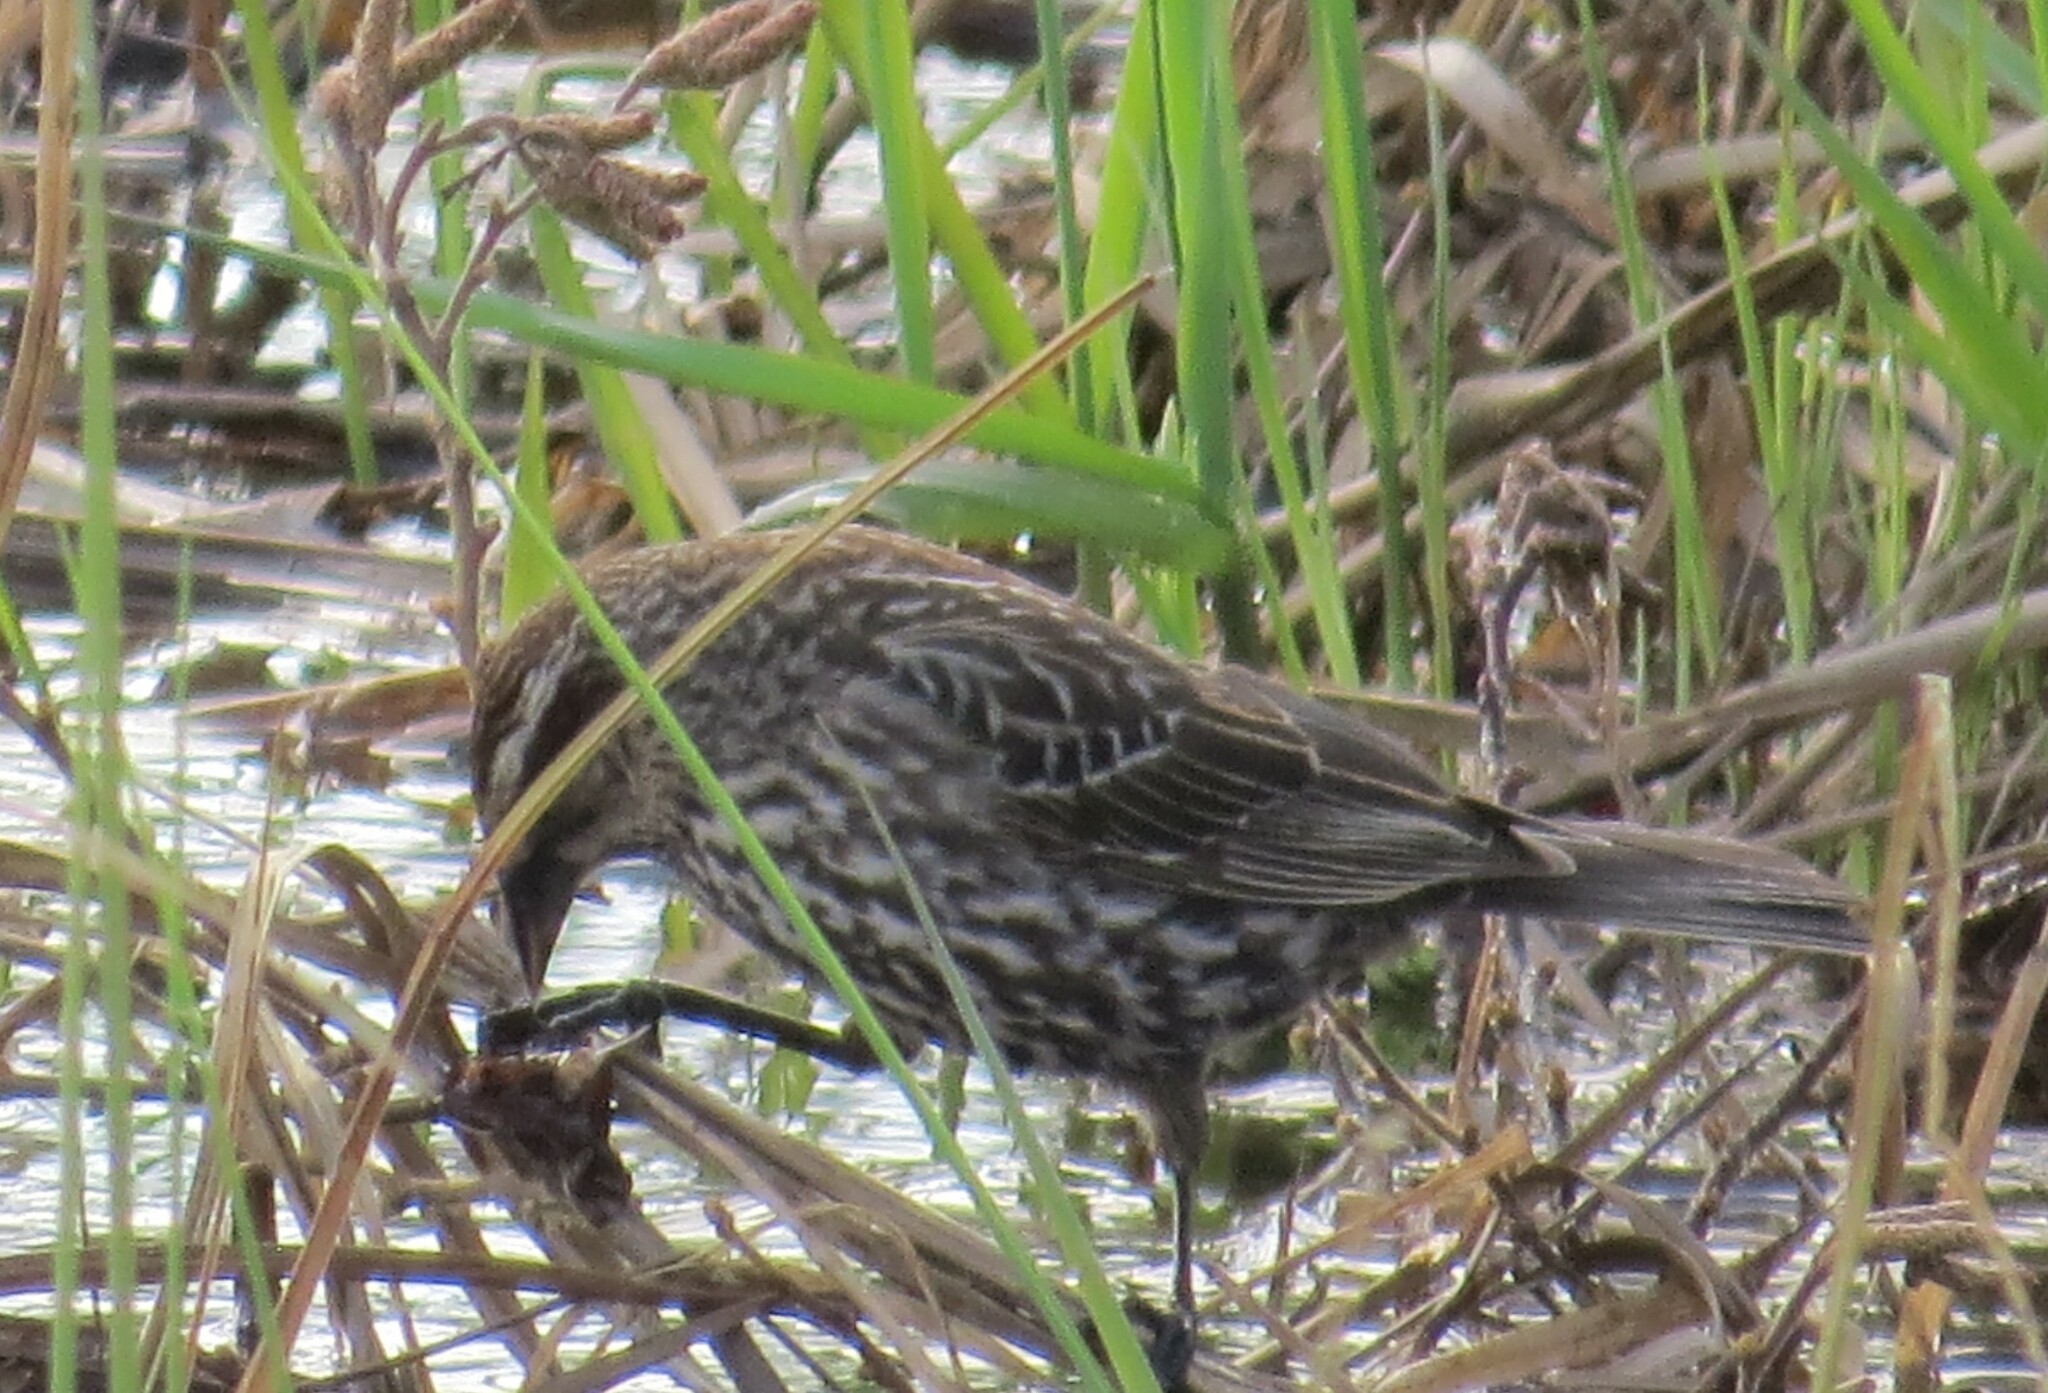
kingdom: Animalia
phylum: Chordata
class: Aves
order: Passeriformes
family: Icteridae
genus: Agelaius
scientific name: Agelaius phoeniceus
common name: Red-winged blackbird
